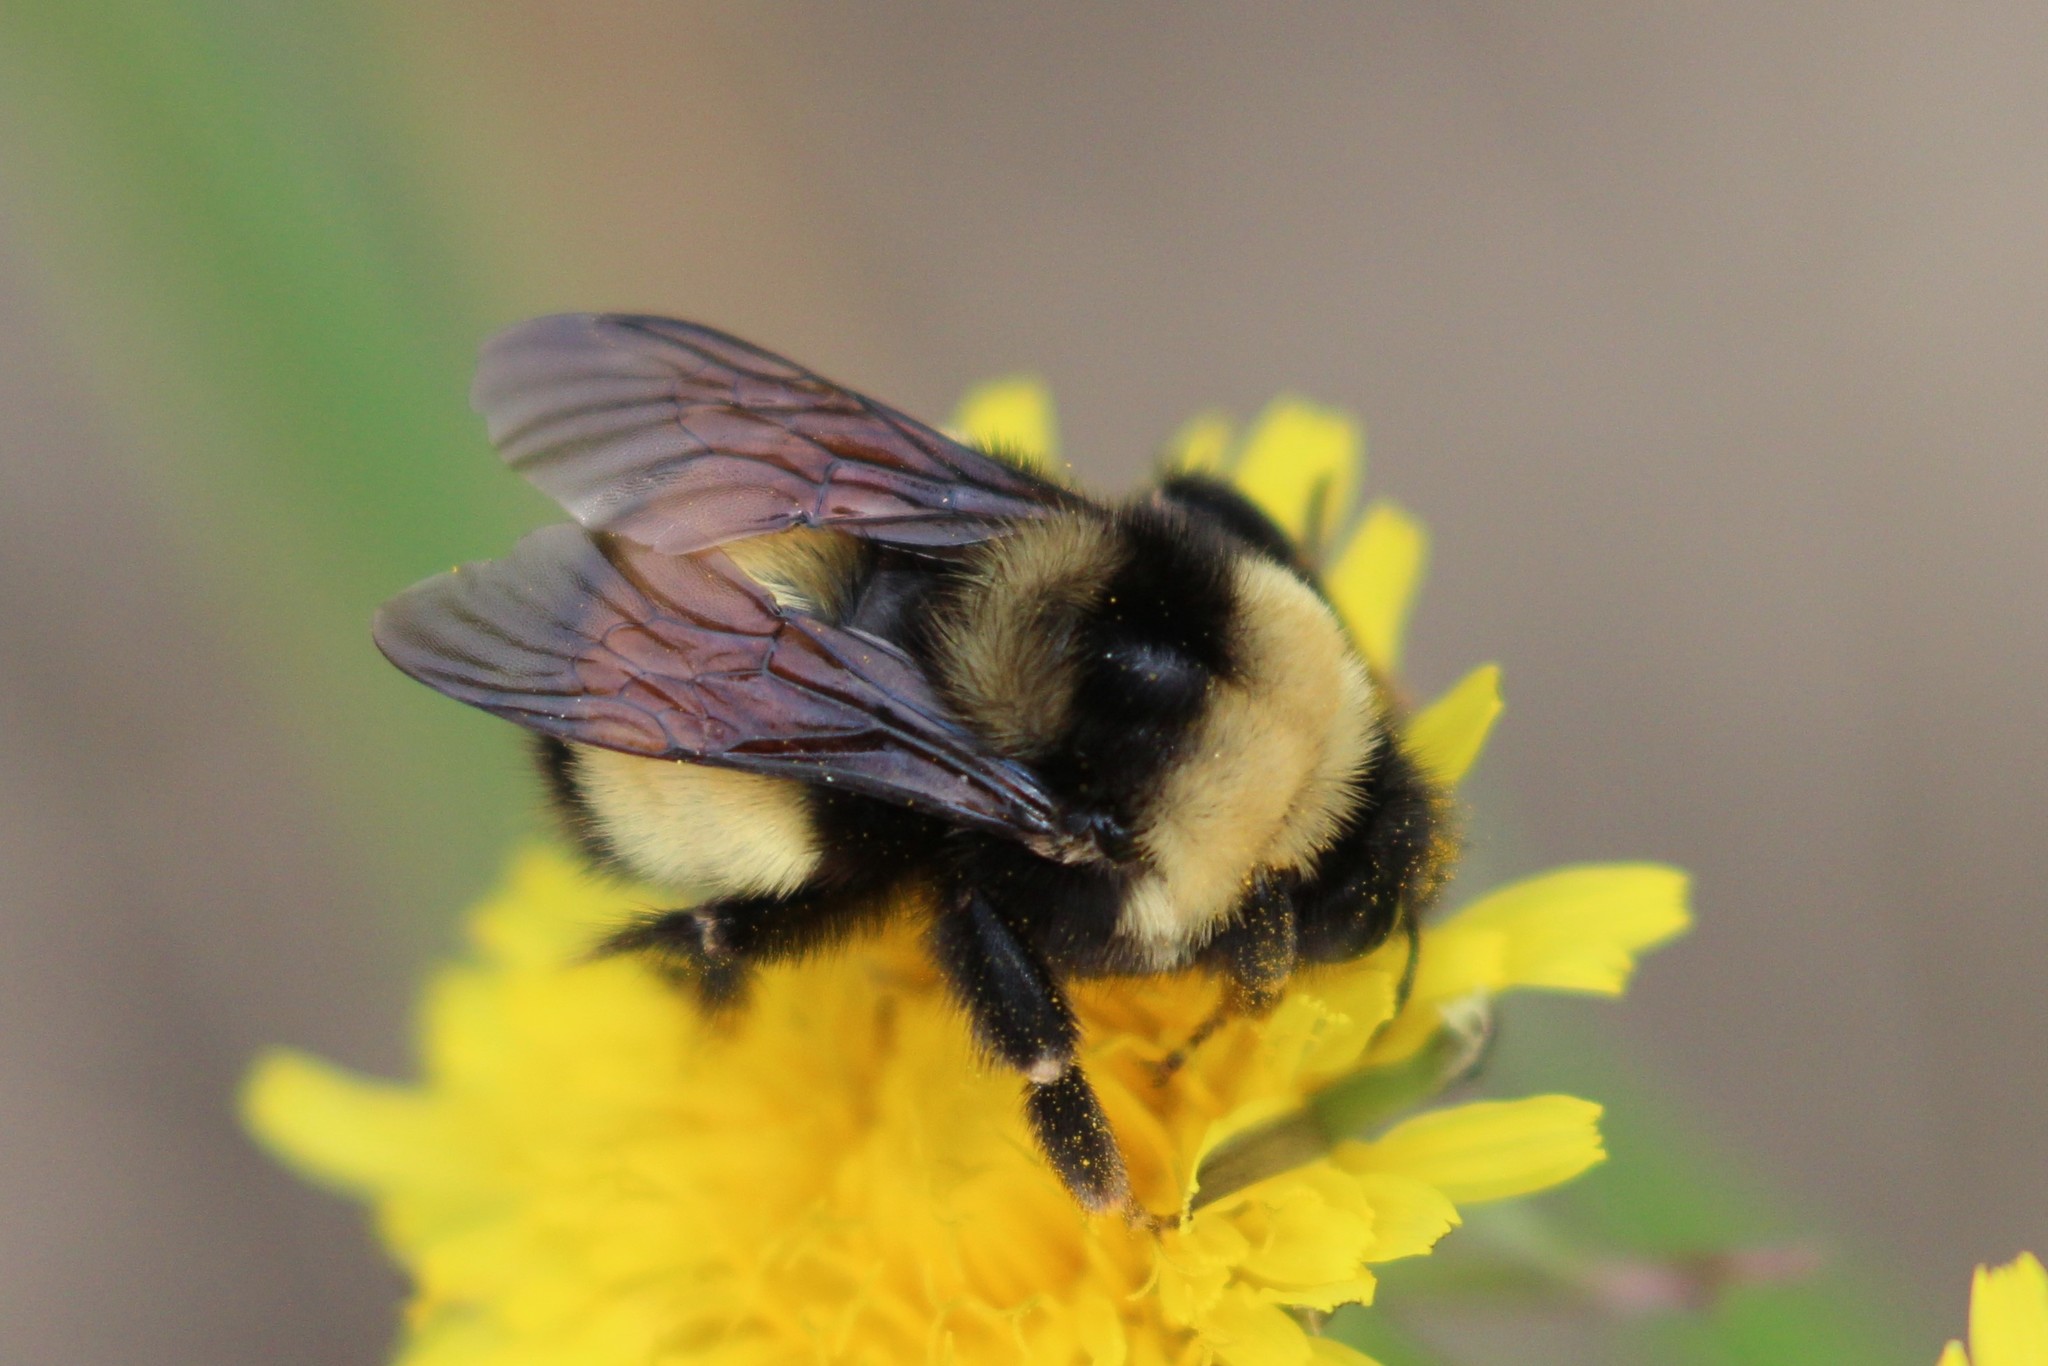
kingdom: Animalia
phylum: Arthropoda
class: Insecta
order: Hymenoptera
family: Apidae
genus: Bombus
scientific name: Bombus terricola
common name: Yellow-banded bumble bee
